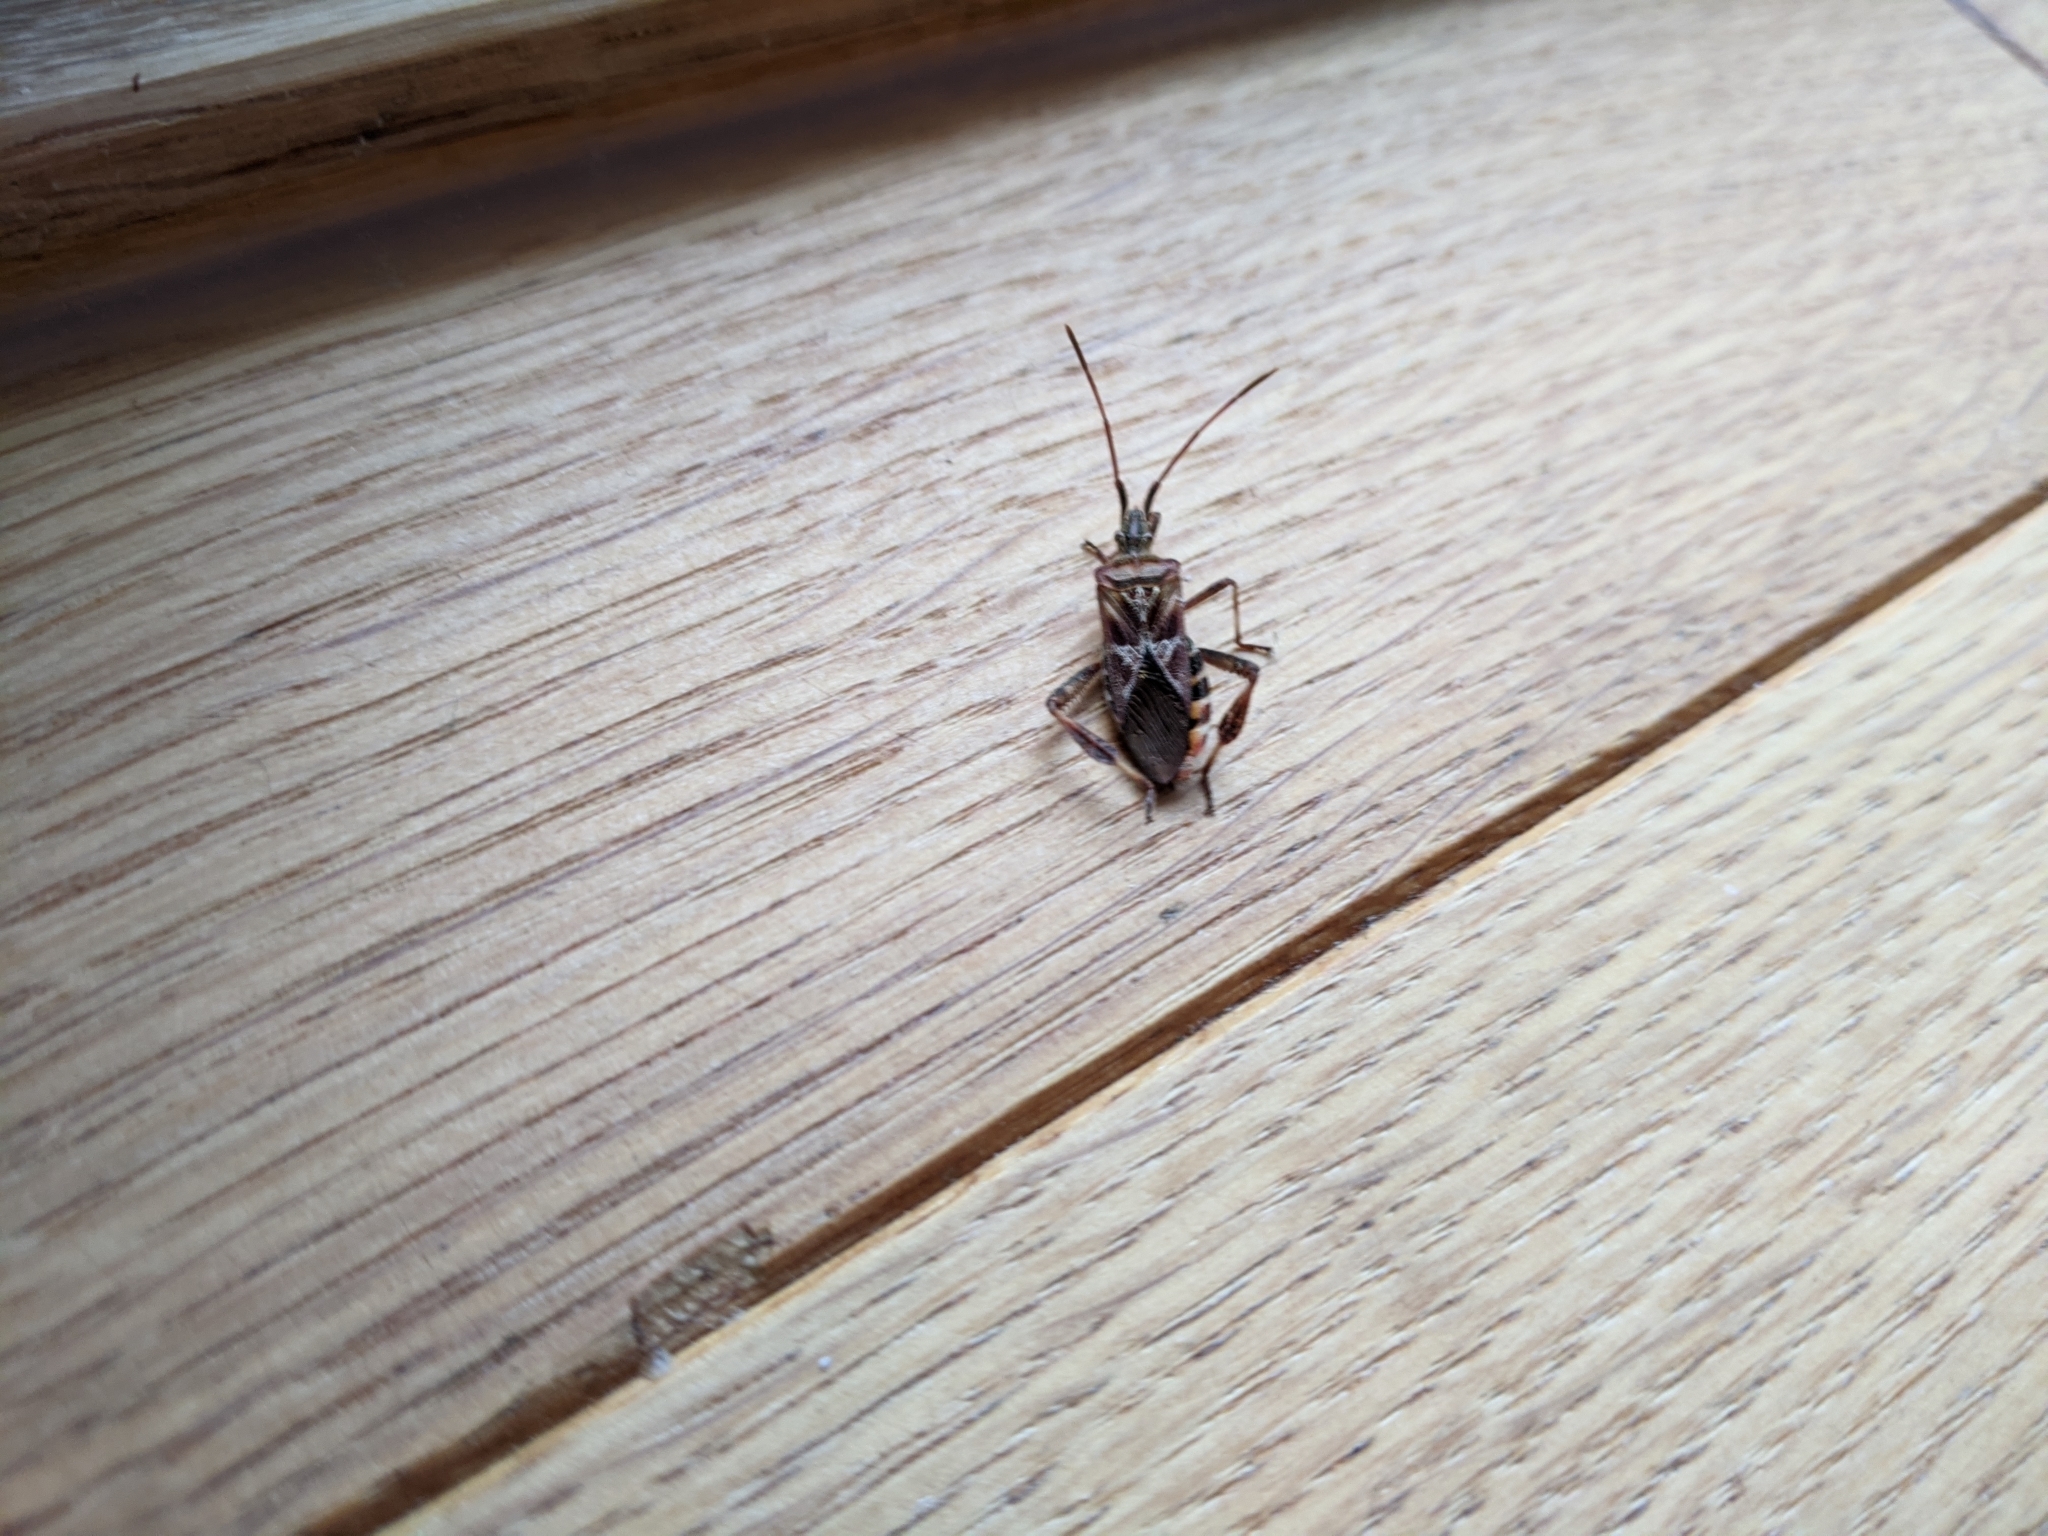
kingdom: Animalia
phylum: Arthropoda
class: Insecta
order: Hemiptera
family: Coreidae
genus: Leptoglossus
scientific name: Leptoglossus occidentalis
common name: Western conifer-seed bug
